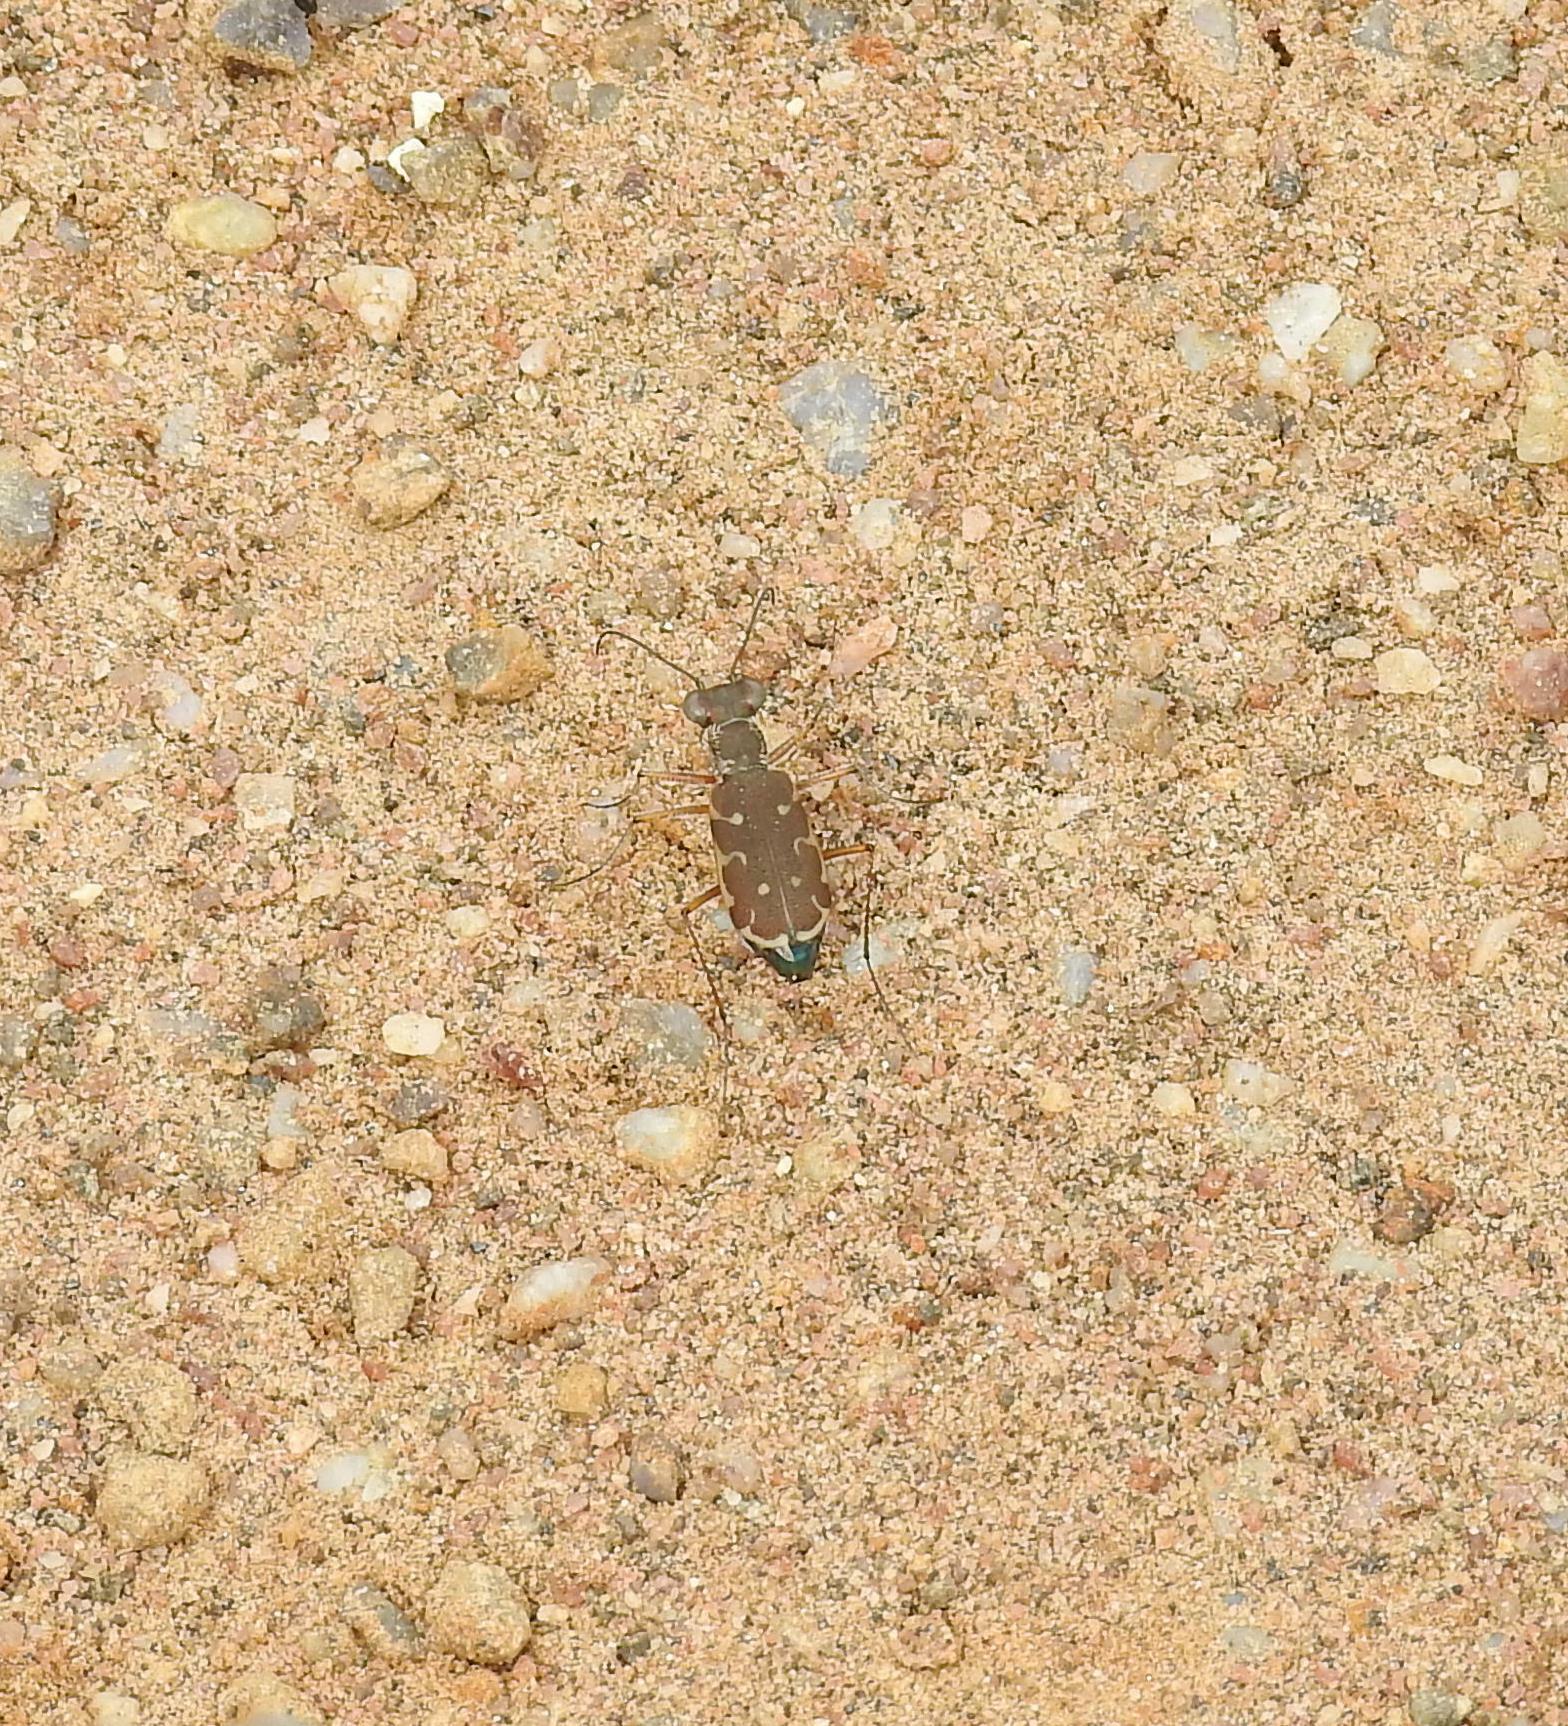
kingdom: Animalia
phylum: Arthropoda
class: Insecta
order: Coleoptera
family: Carabidae
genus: Myriochila
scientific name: Myriochila fastidiosa
